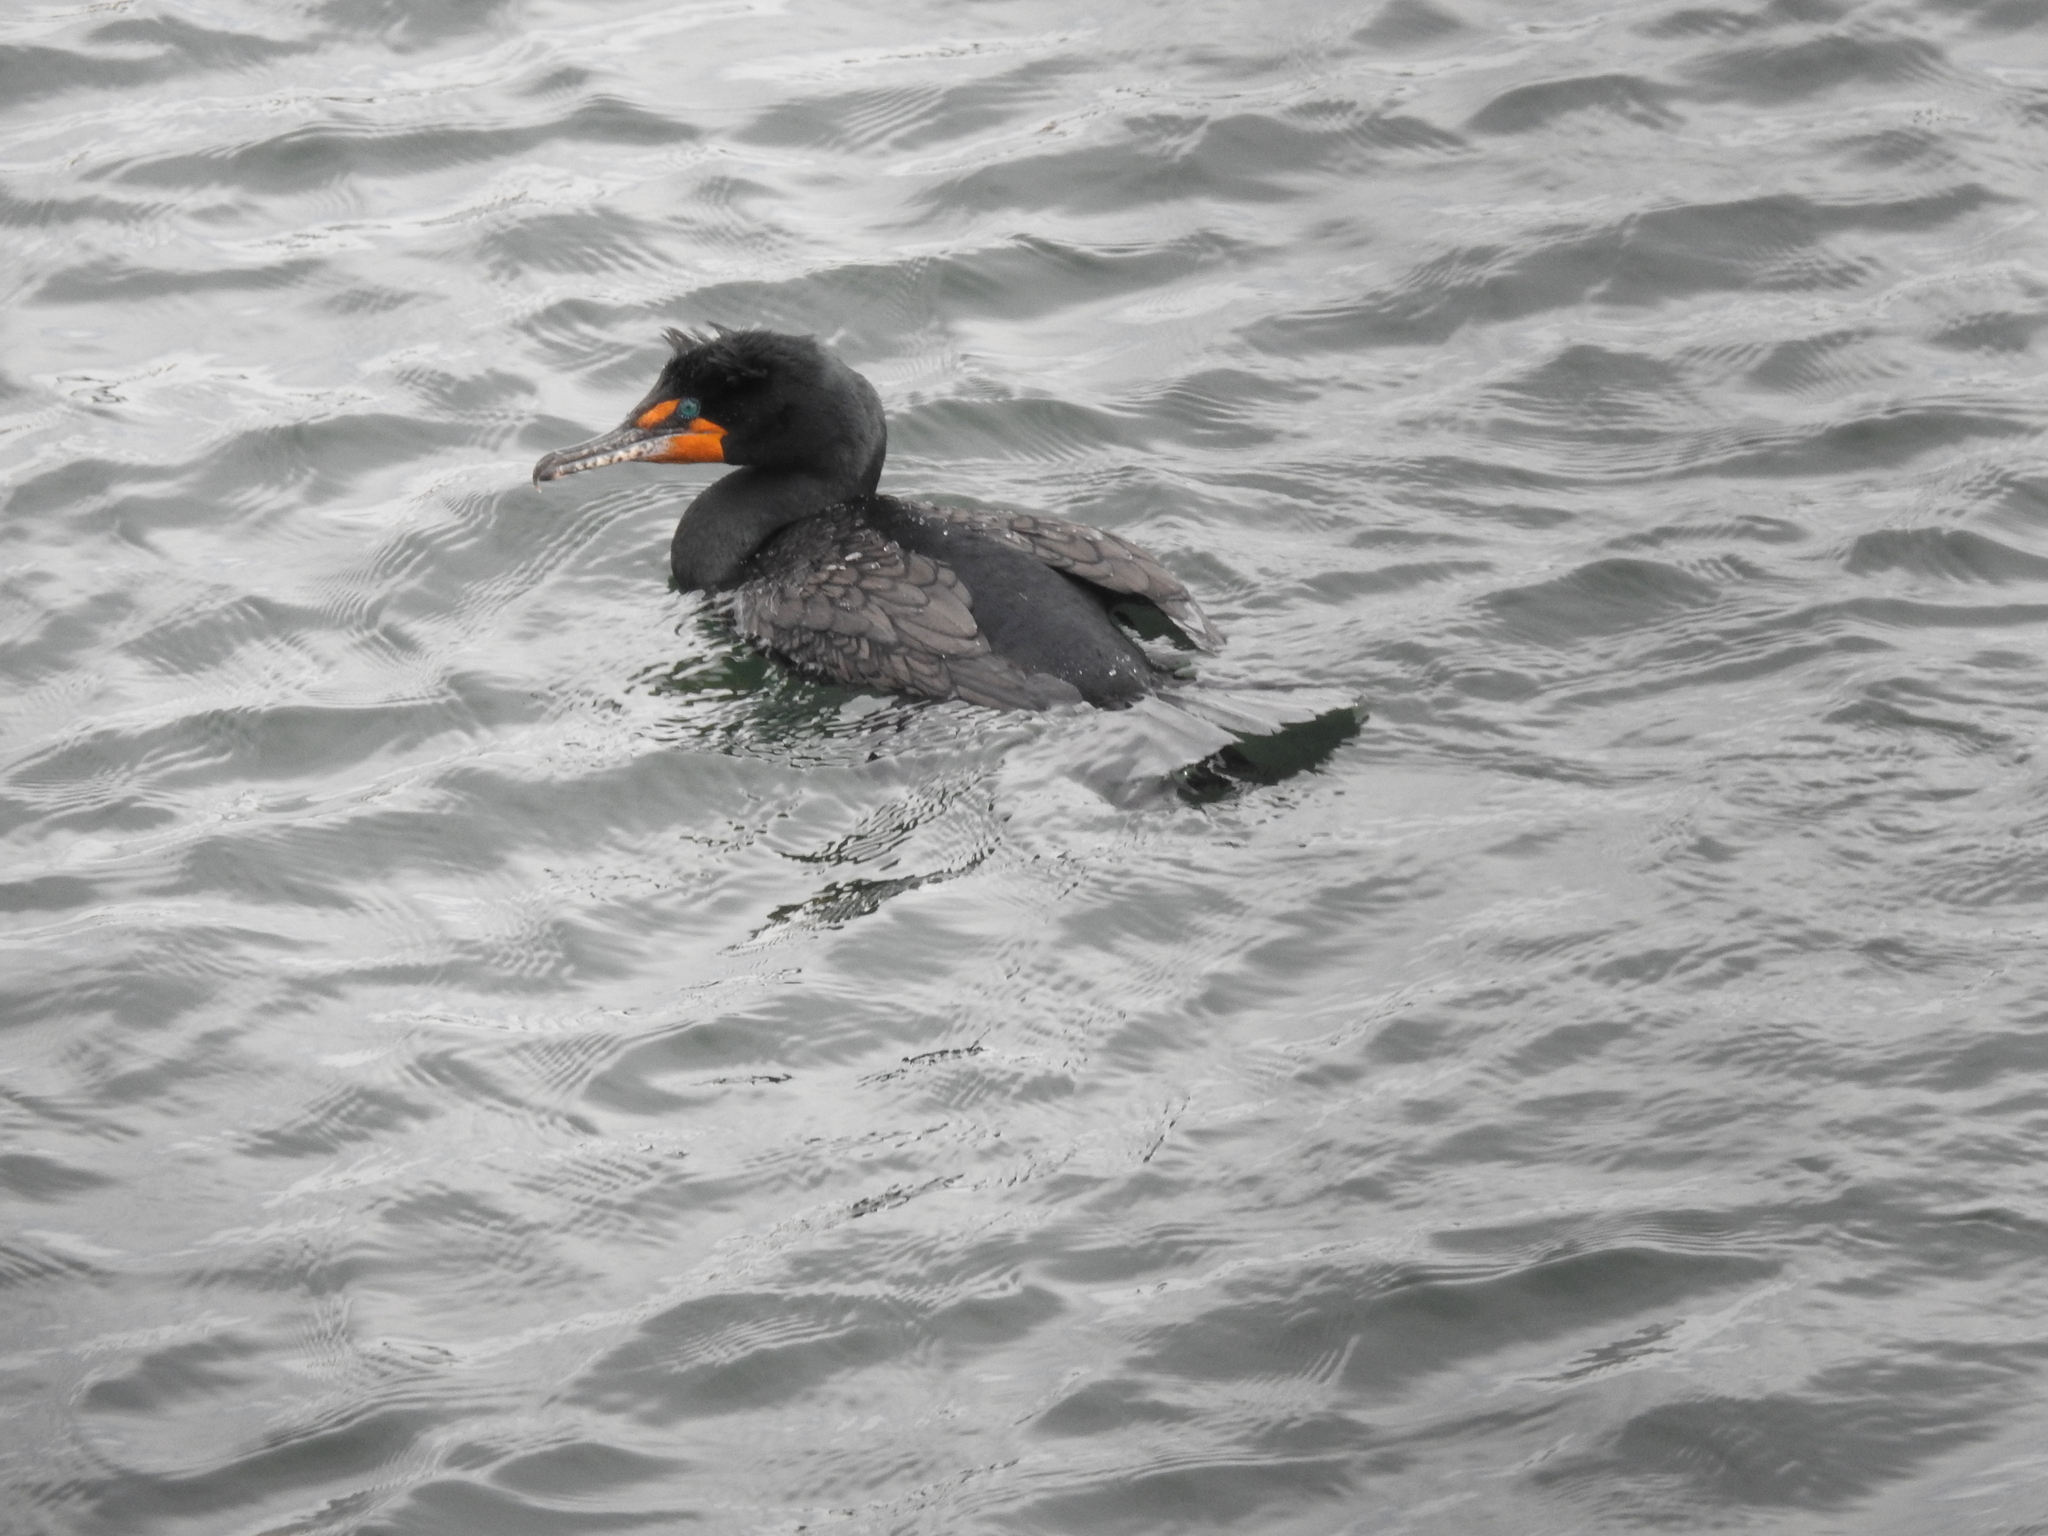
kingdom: Animalia
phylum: Chordata
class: Aves
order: Suliformes
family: Phalacrocoracidae
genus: Phalacrocorax
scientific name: Phalacrocorax auritus
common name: Double-crested cormorant
